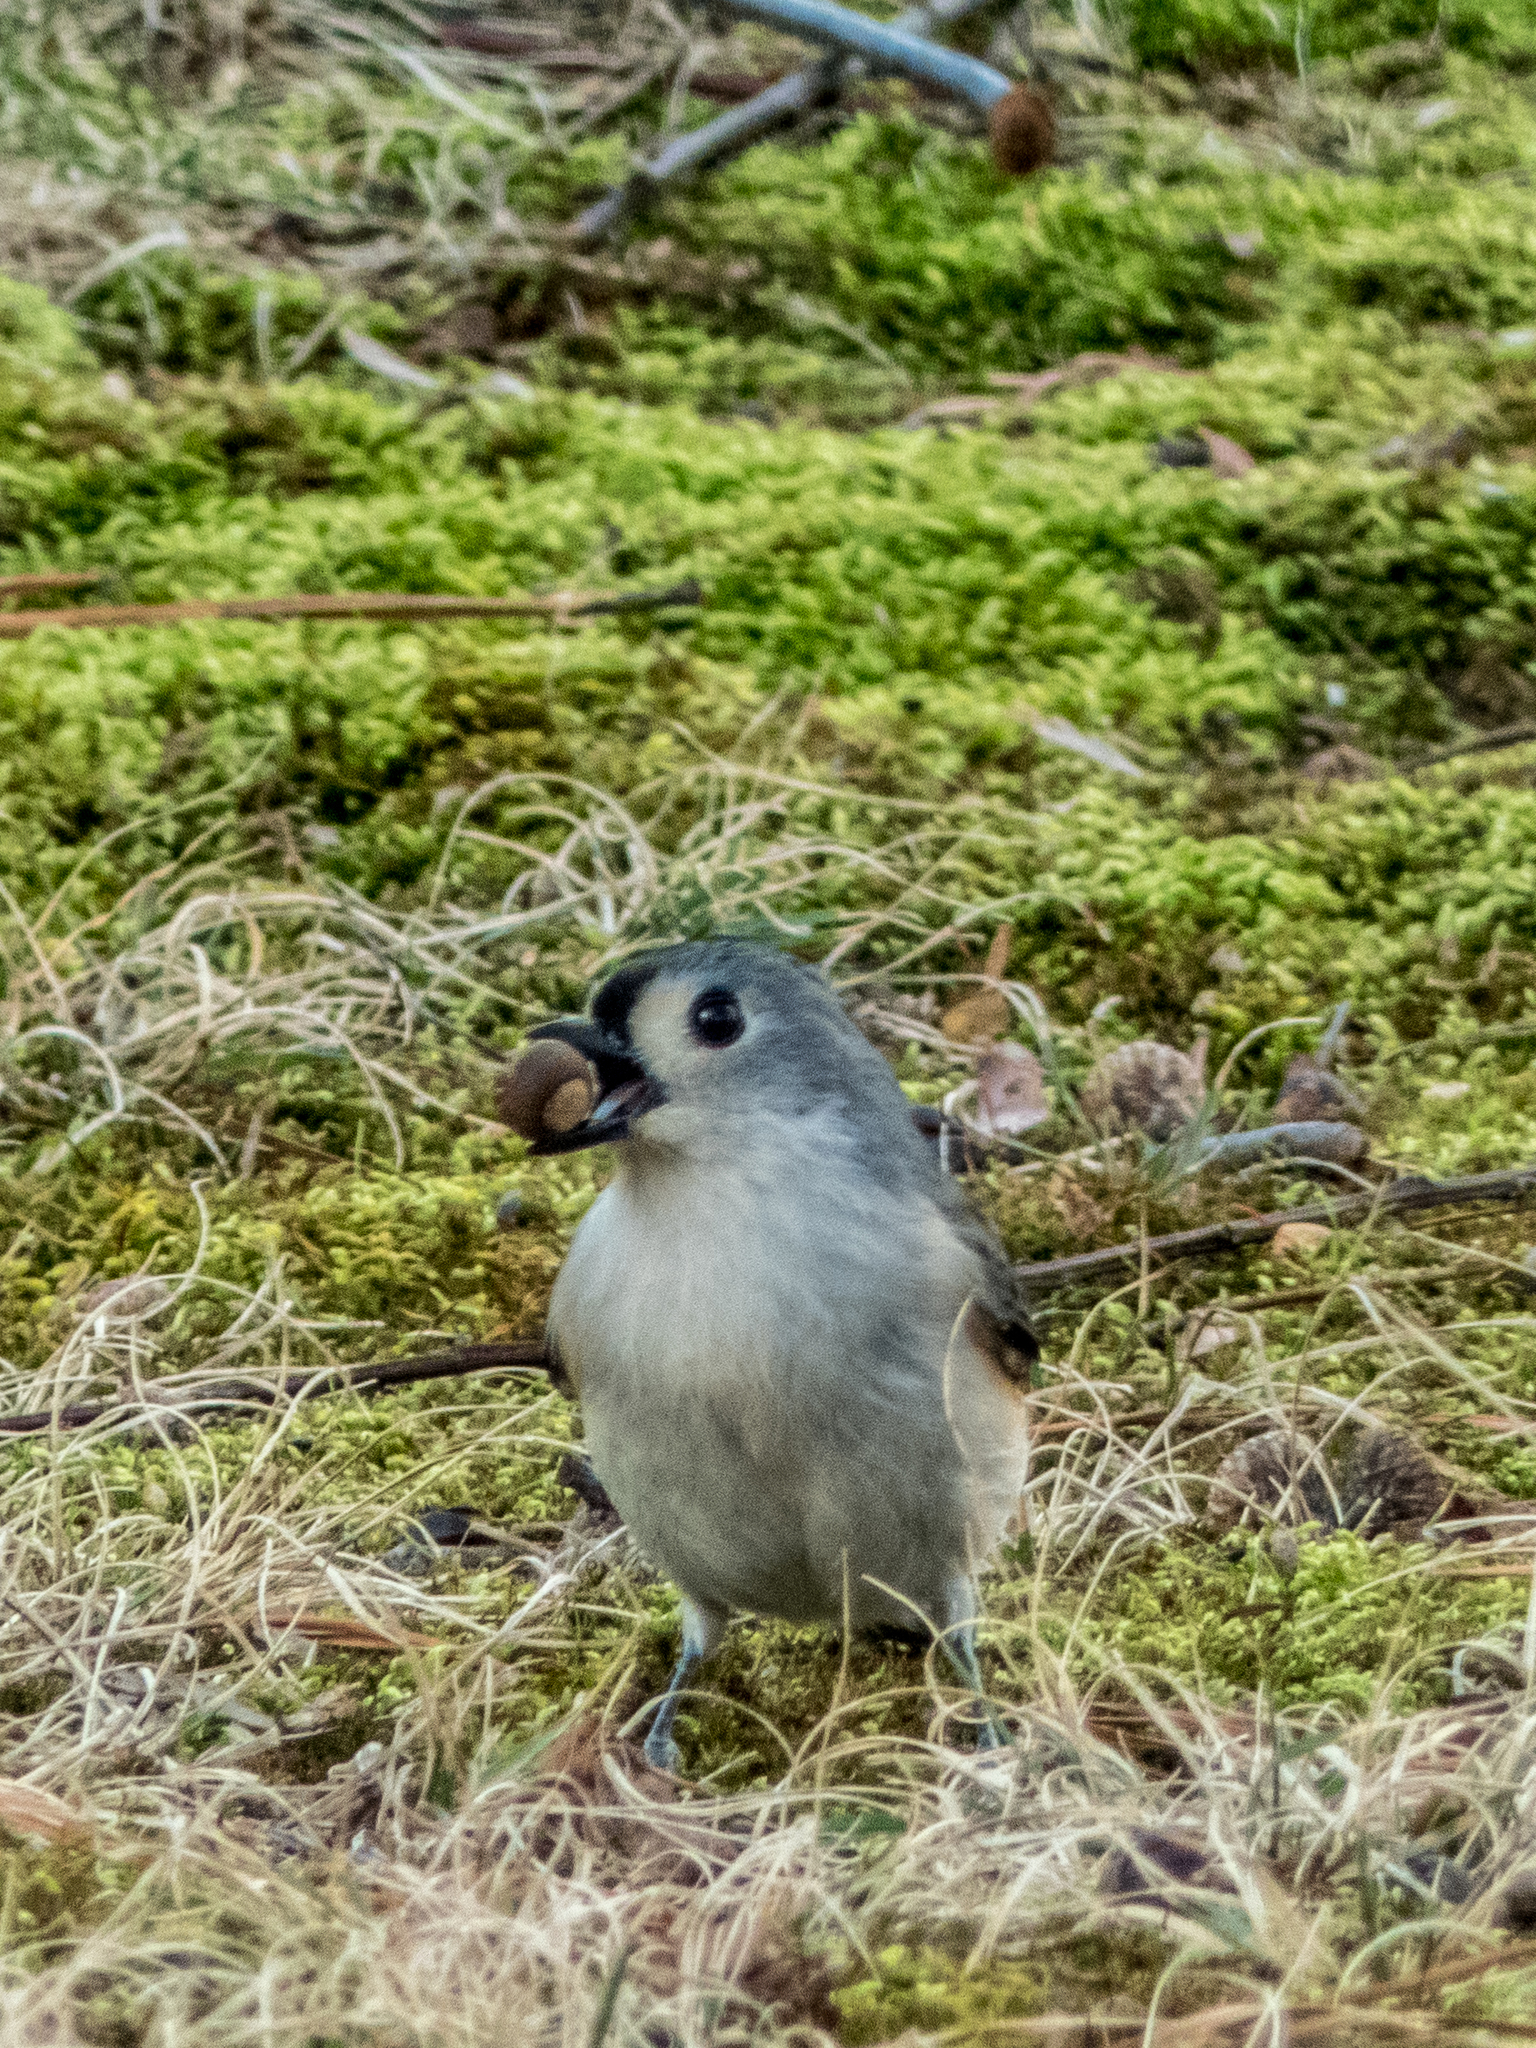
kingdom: Animalia
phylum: Chordata
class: Aves
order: Passeriformes
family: Paridae
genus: Baeolophus
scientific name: Baeolophus bicolor
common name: Tufted titmouse
